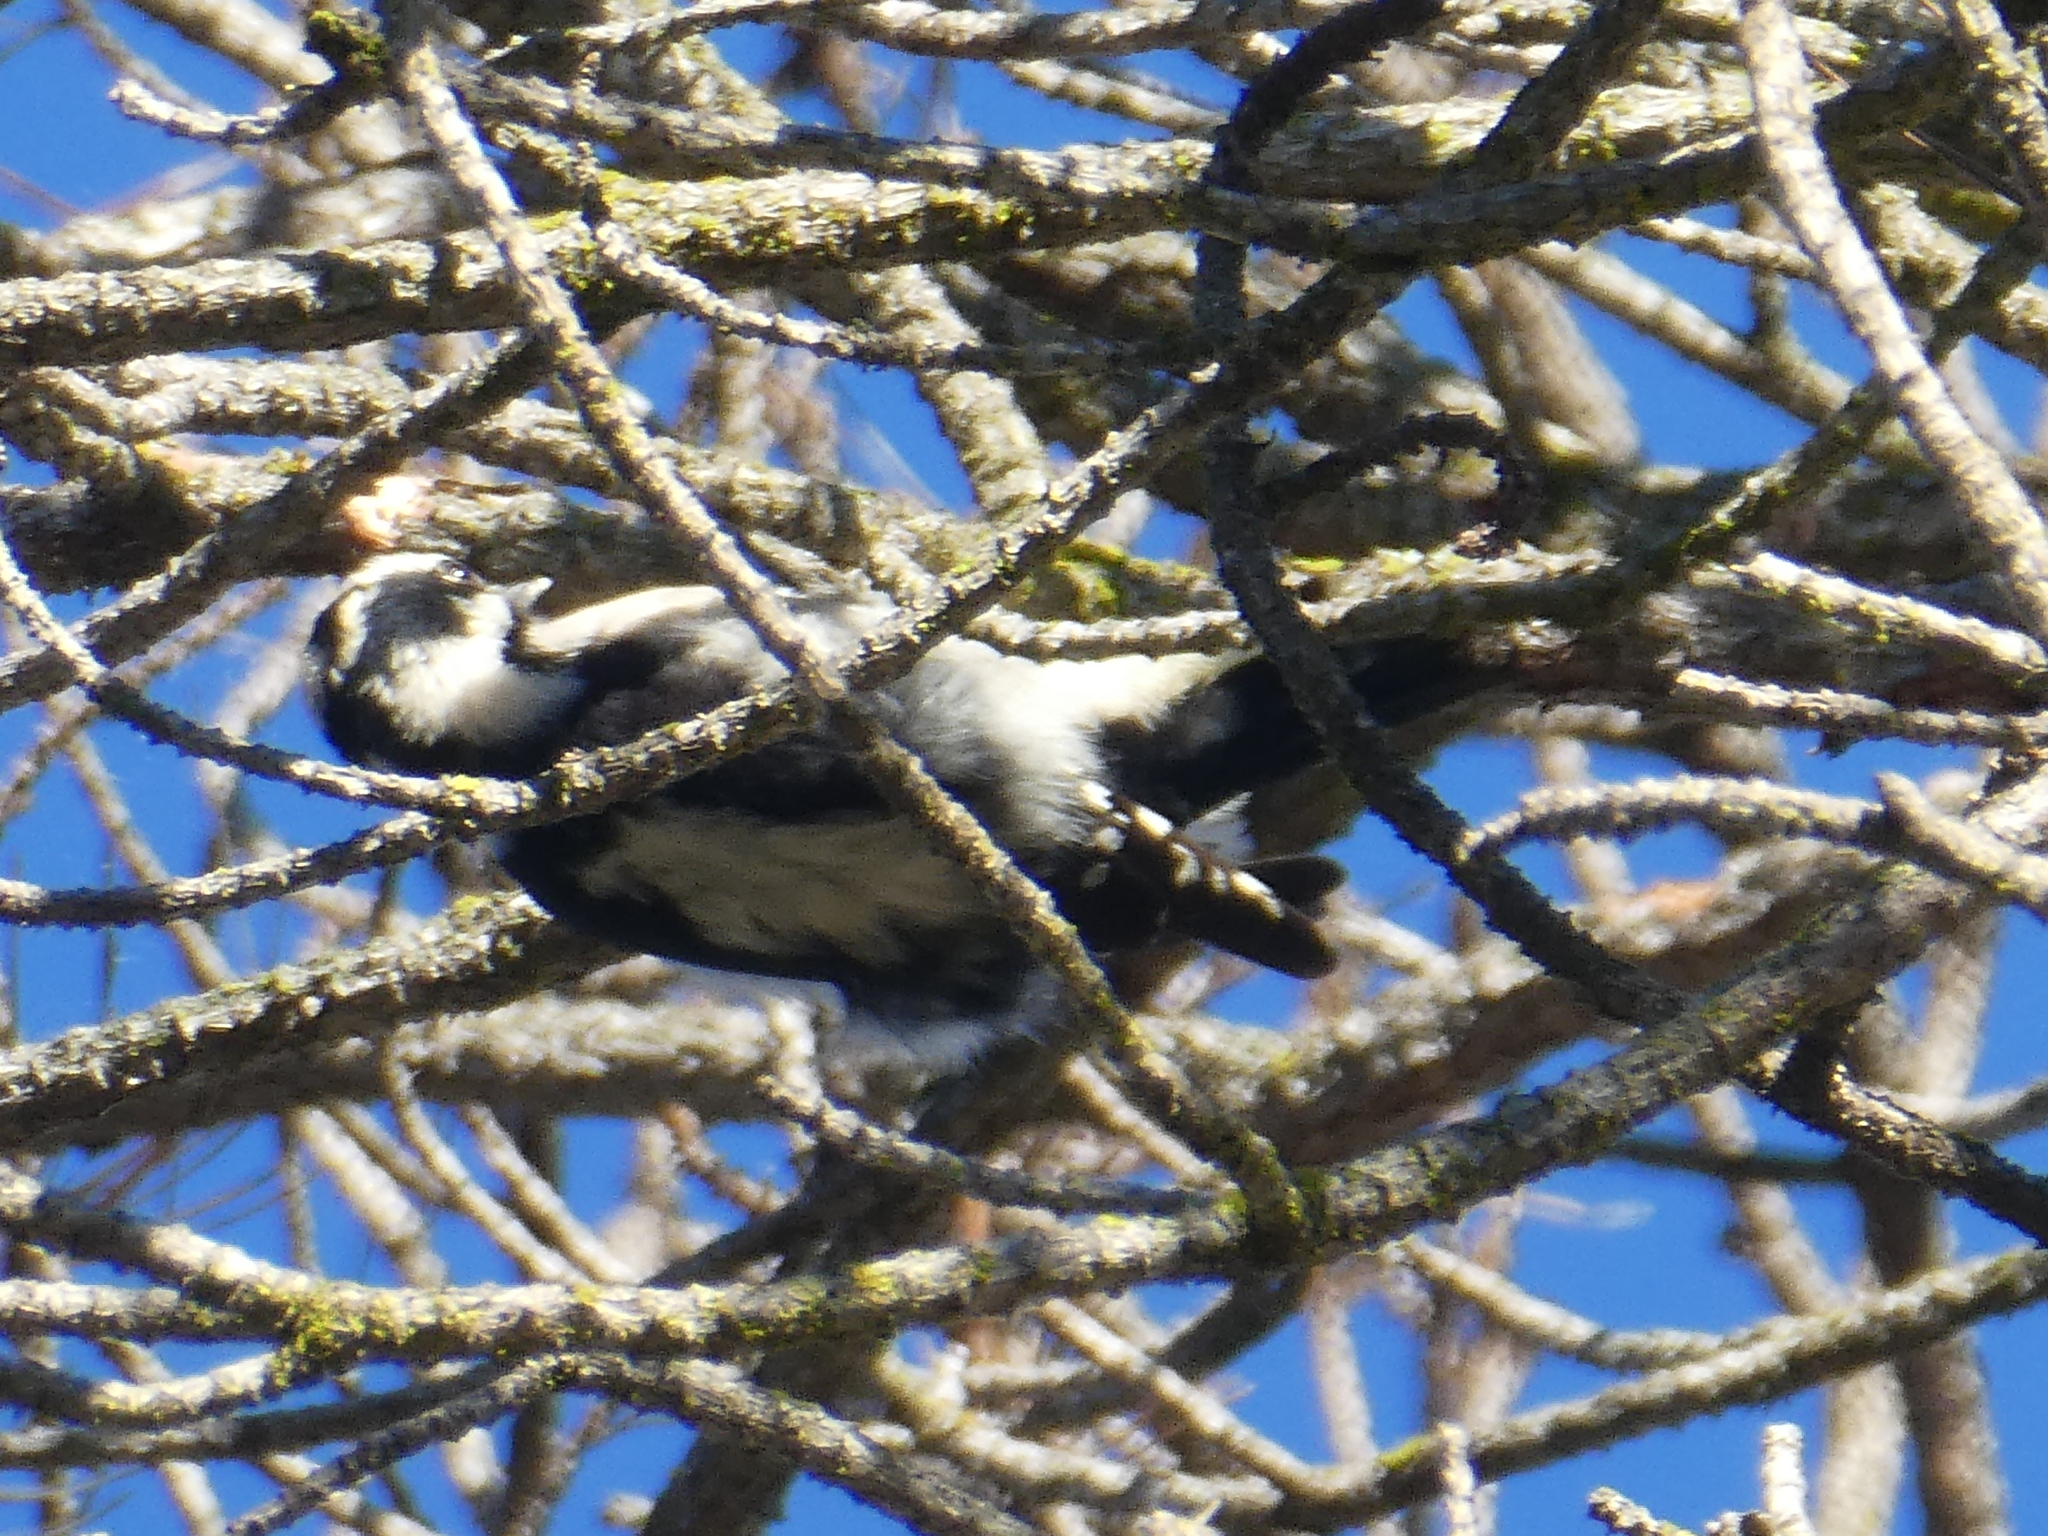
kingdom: Animalia
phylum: Chordata
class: Aves
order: Piciformes
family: Picidae
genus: Dryobates
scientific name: Dryobates pubescens
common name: Downy woodpecker
